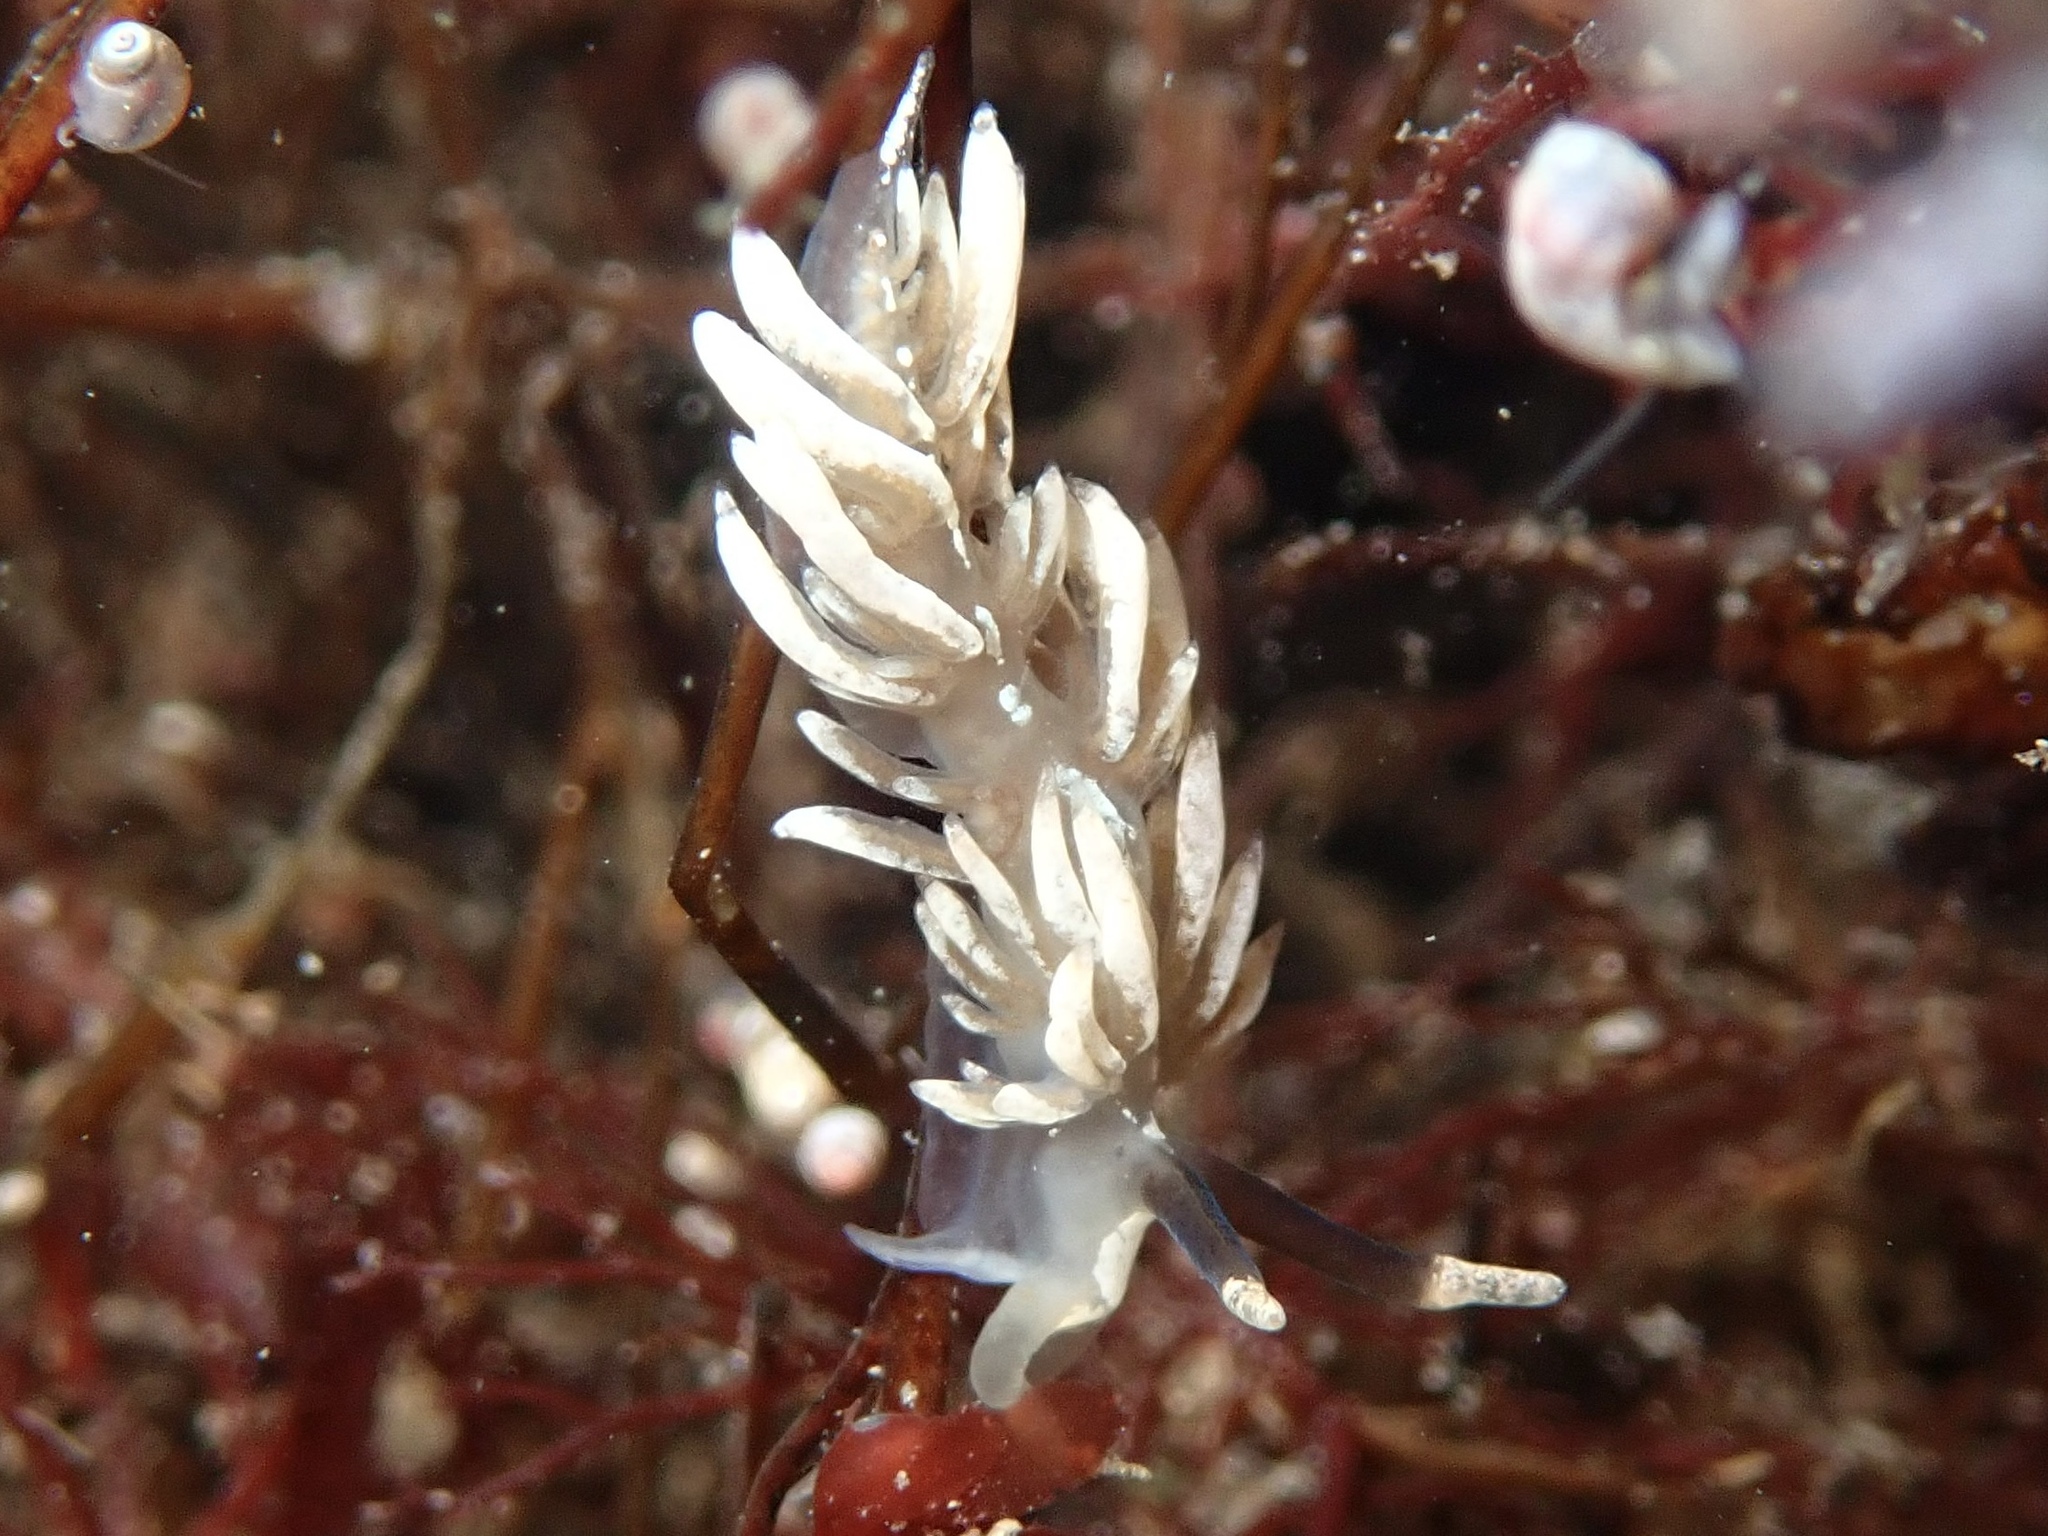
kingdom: Animalia
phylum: Mollusca
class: Gastropoda
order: Nudibranchia
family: Facelinidae
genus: Favorinus
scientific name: Favorinus branchialis
